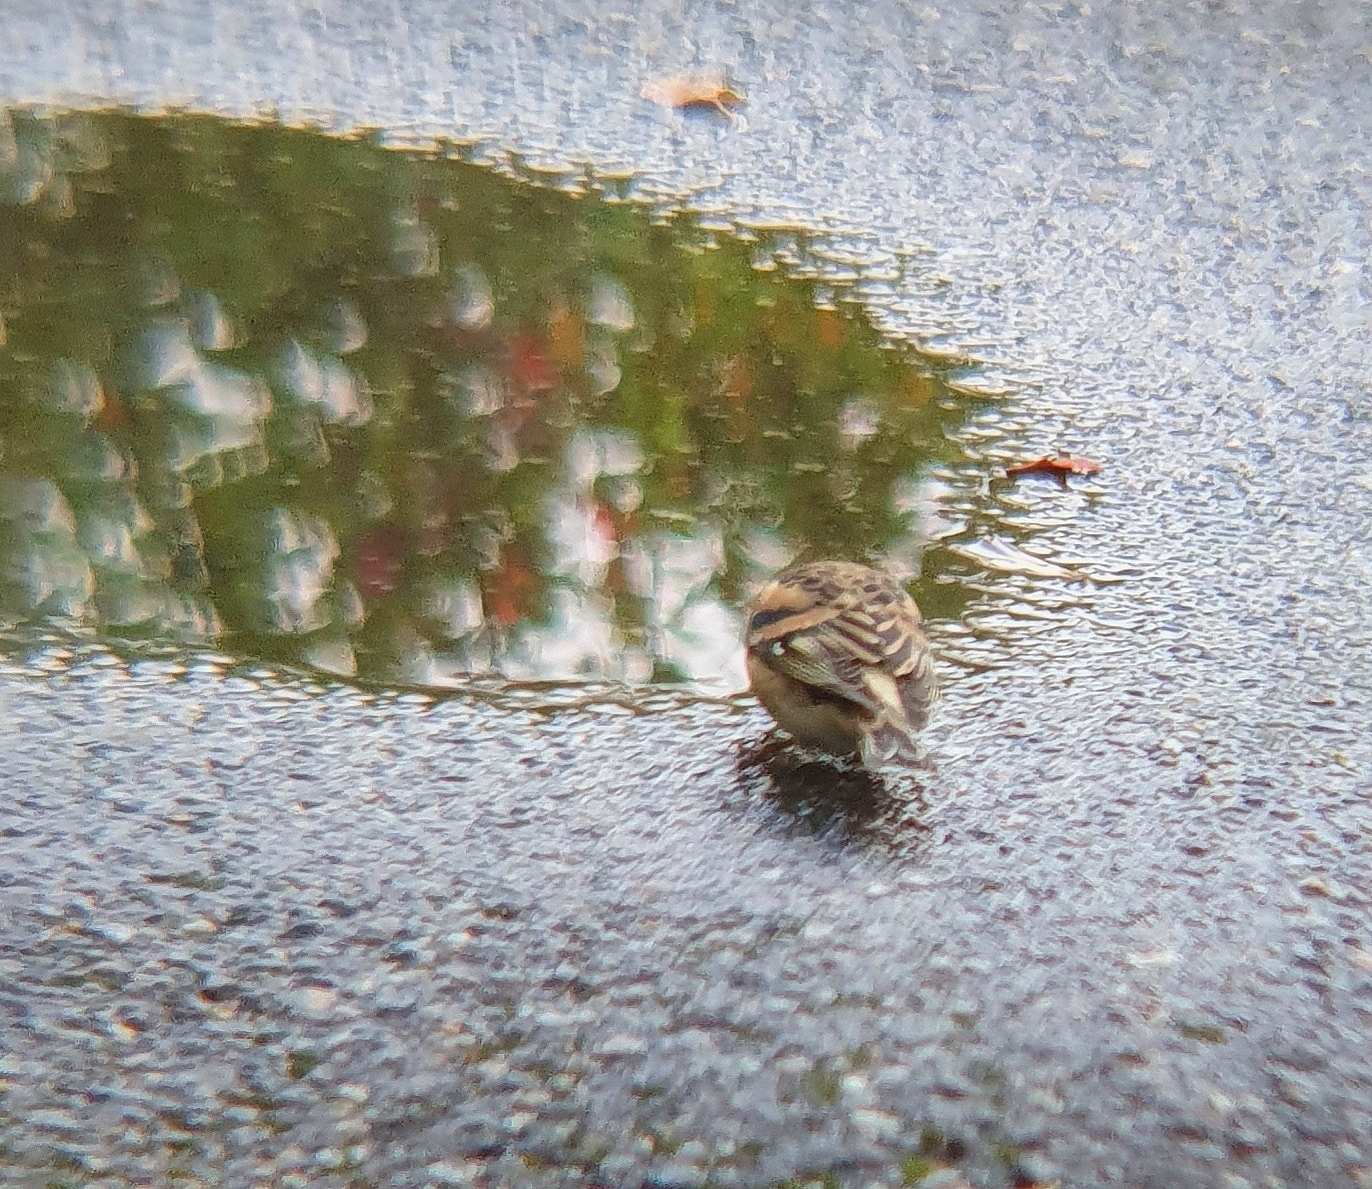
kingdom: Animalia
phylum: Chordata
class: Aves
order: Passeriformes
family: Fringillidae
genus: Fringilla
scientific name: Fringilla montifringilla
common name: Brambling
